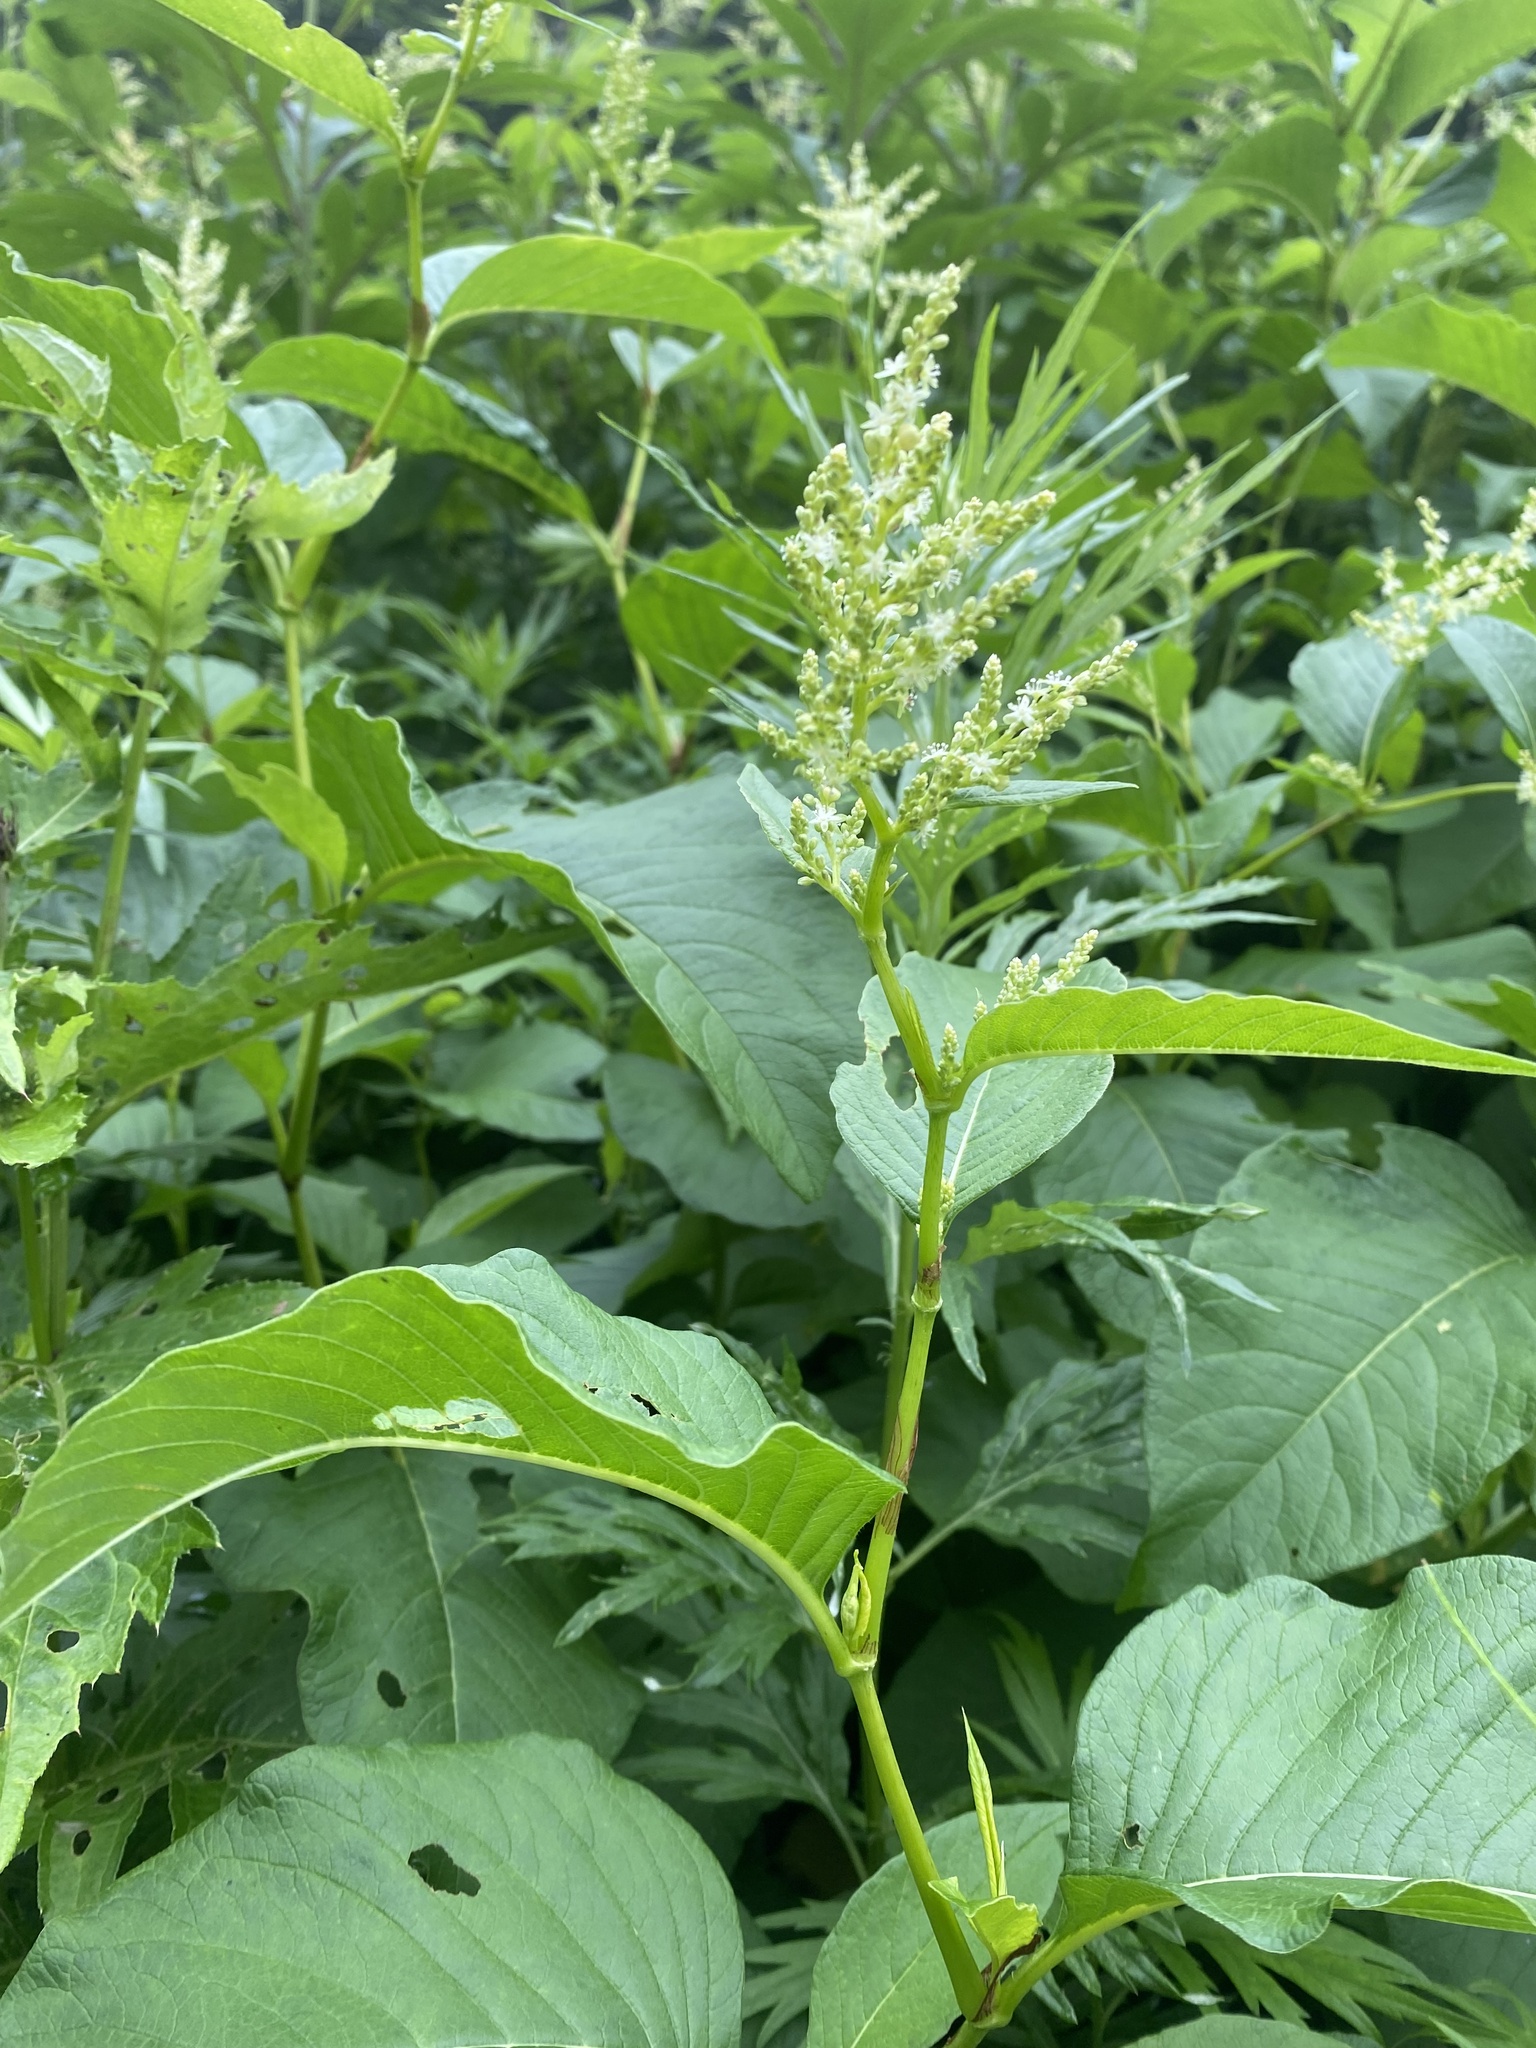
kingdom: Plantae
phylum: Tracheophyta
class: Magnoliopsida
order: Caryophyllales
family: Polygonaceae
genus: Koenigia
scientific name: Koenigia weyrichii
